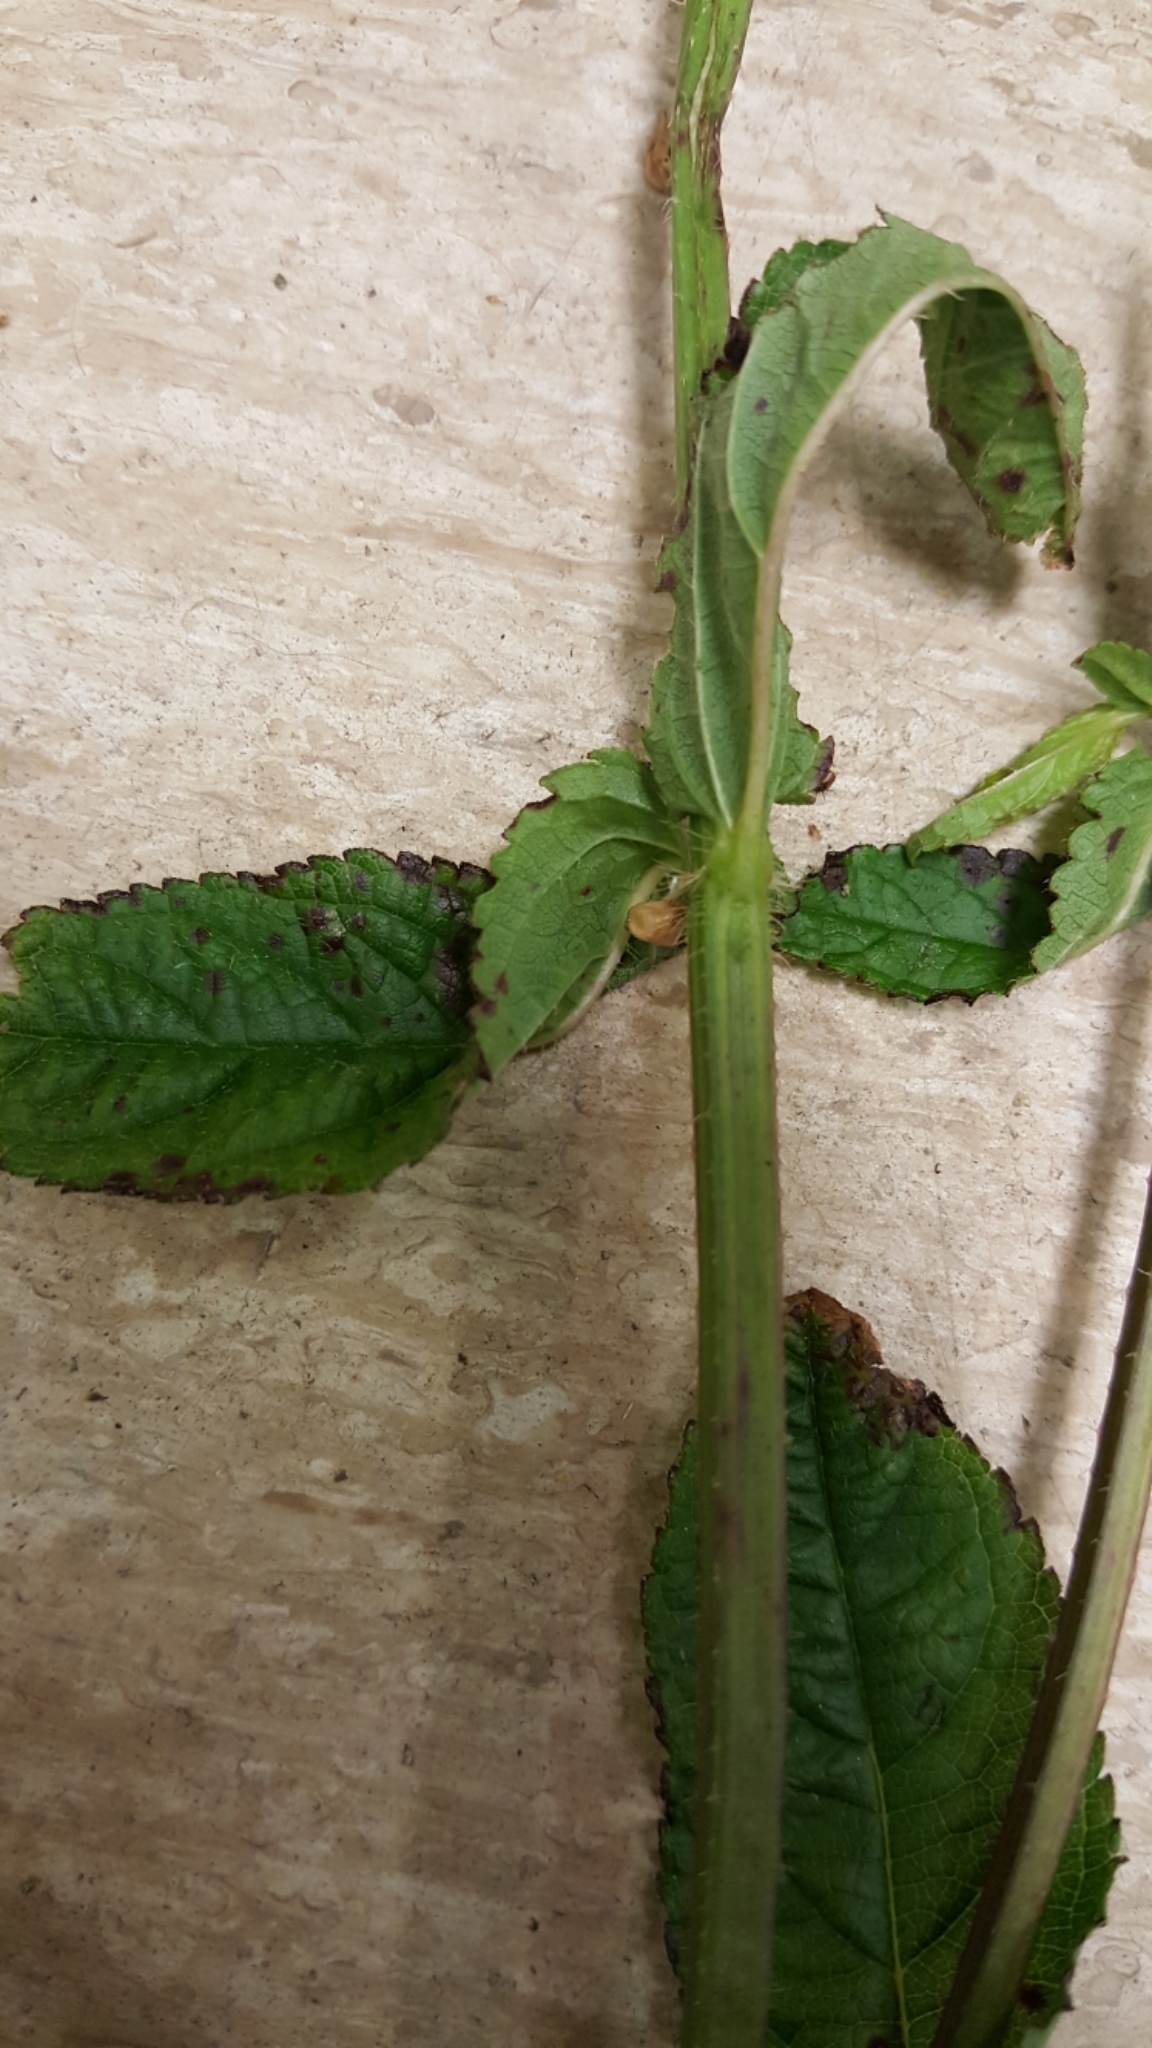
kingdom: Plantae
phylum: Tracheophyta
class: Magnoliopsida
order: Lamiales
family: Lamiaceae
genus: Stachys
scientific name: Stachys palustris
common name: Marsh woundwort
